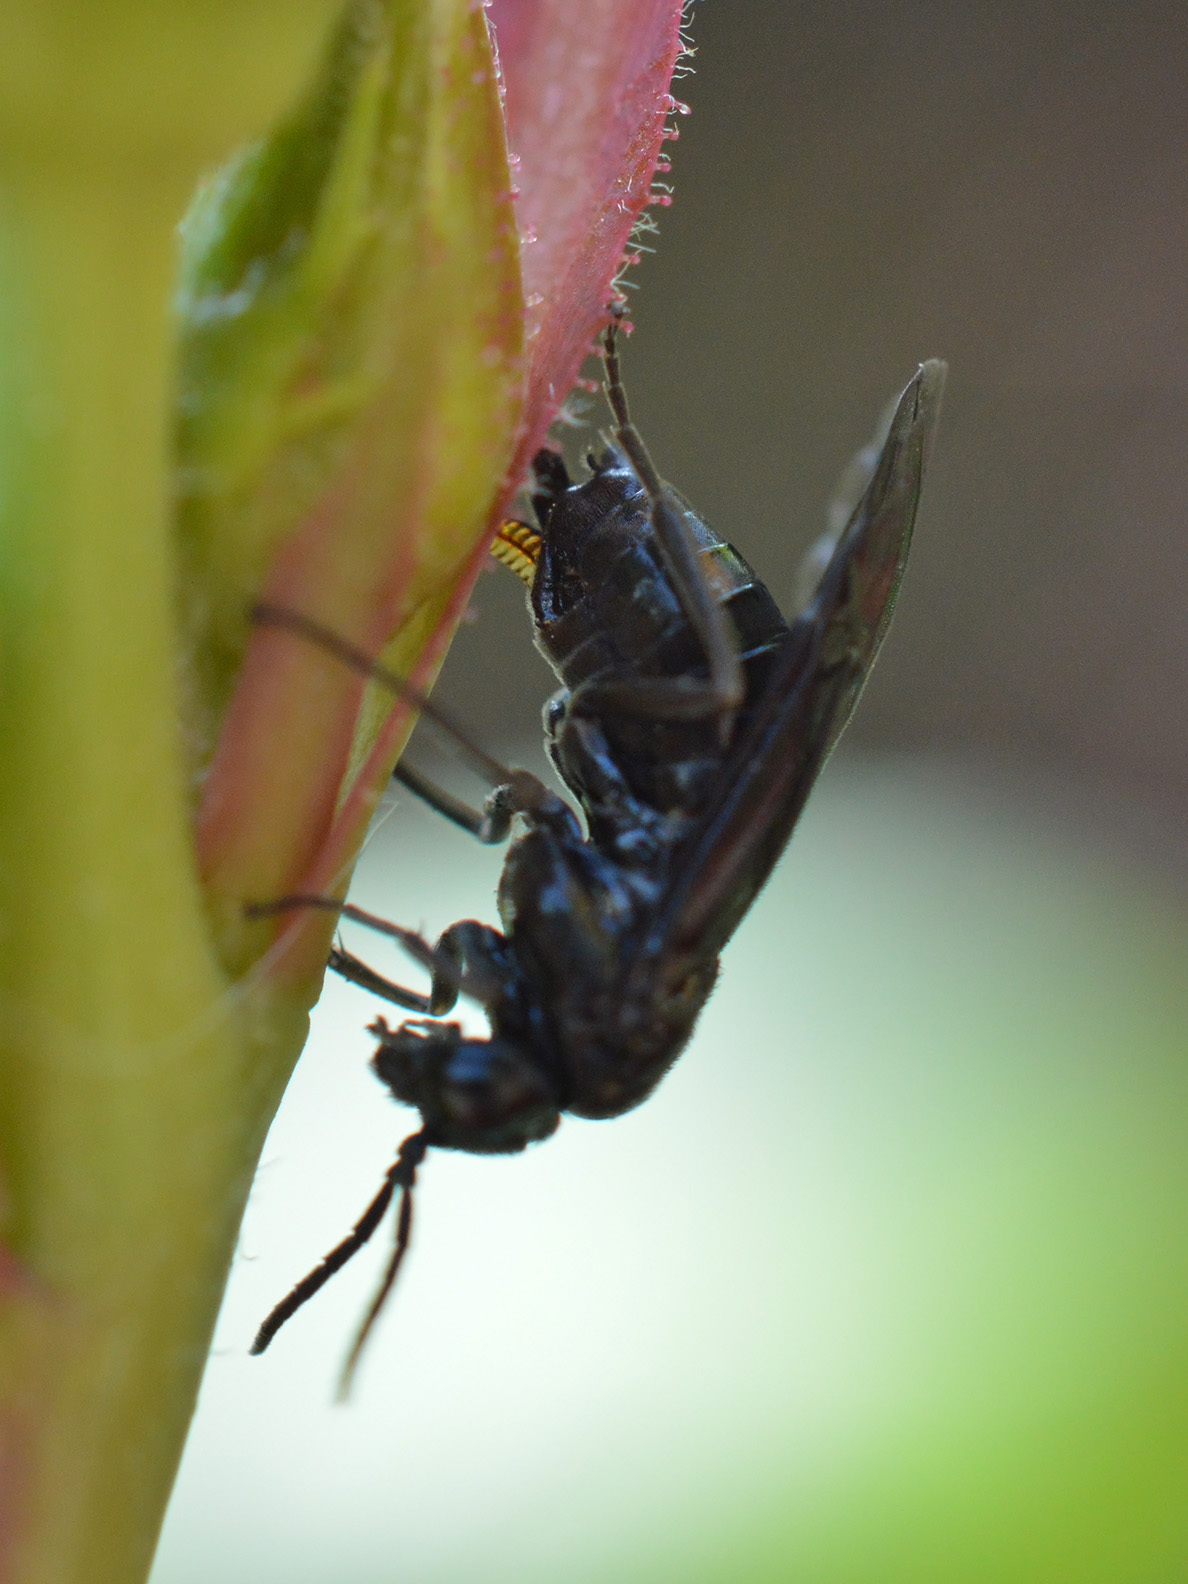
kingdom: Animalia
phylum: Arthropoda
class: Insecta
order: Hymenoptera
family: Tenthredinidae
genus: Ardis
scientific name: Ardis sulcata
